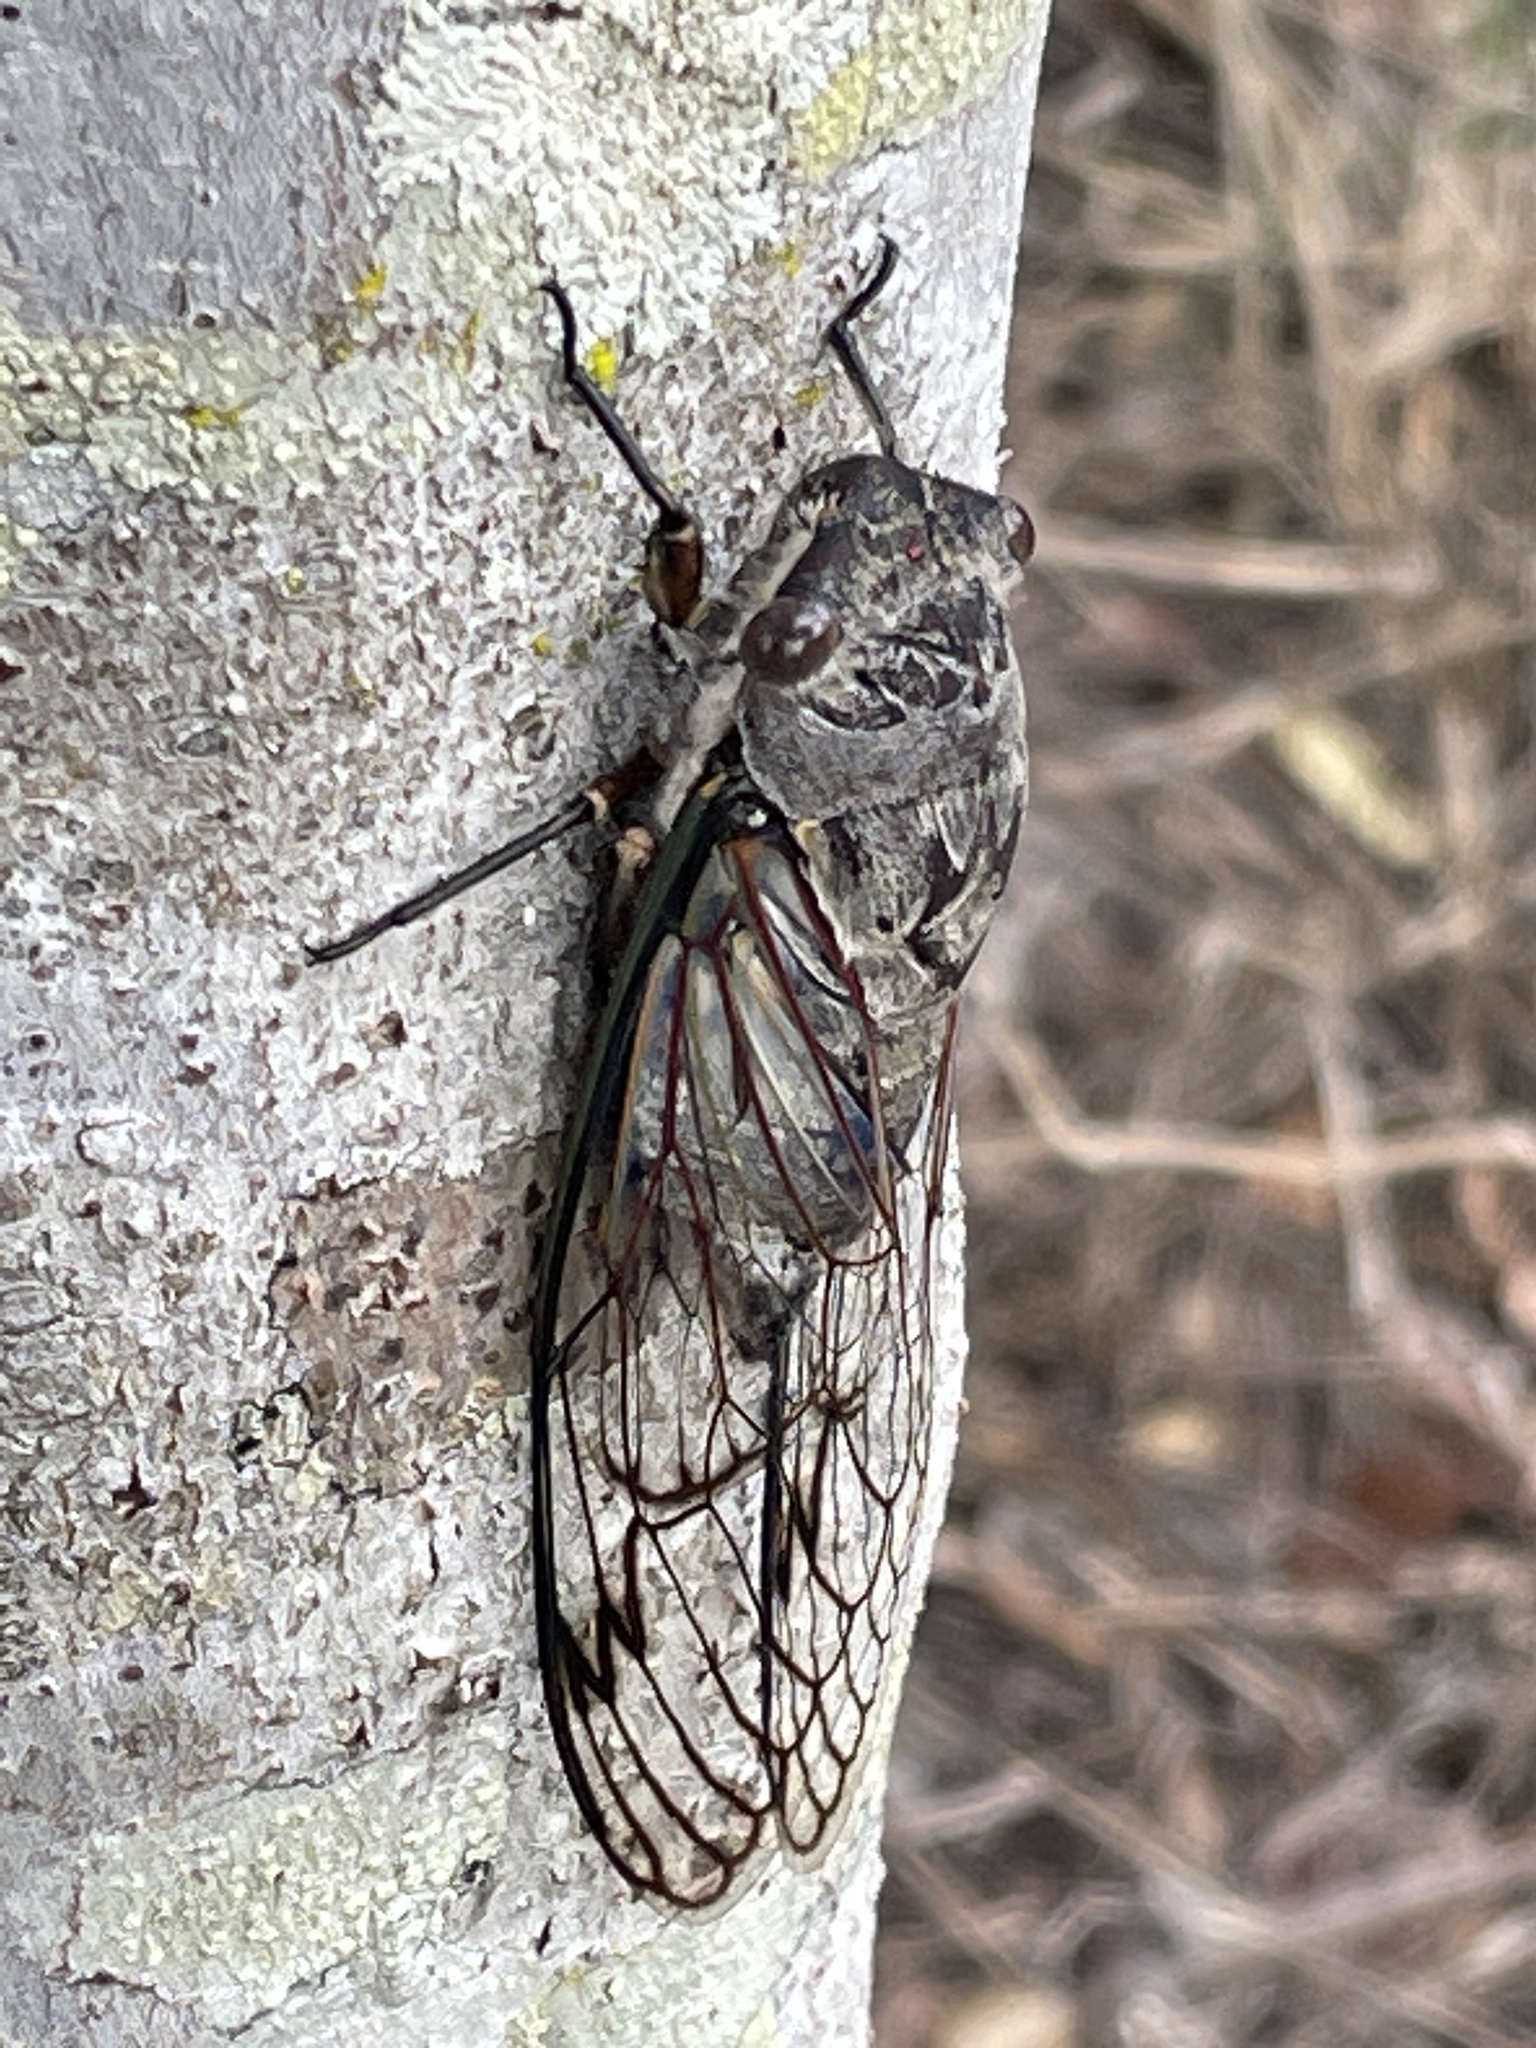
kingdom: Animalia
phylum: Arthropoda
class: Insecta
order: Hemiptera
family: Cicadidae
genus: Psaltoda
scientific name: Psaltoda pictibasis
